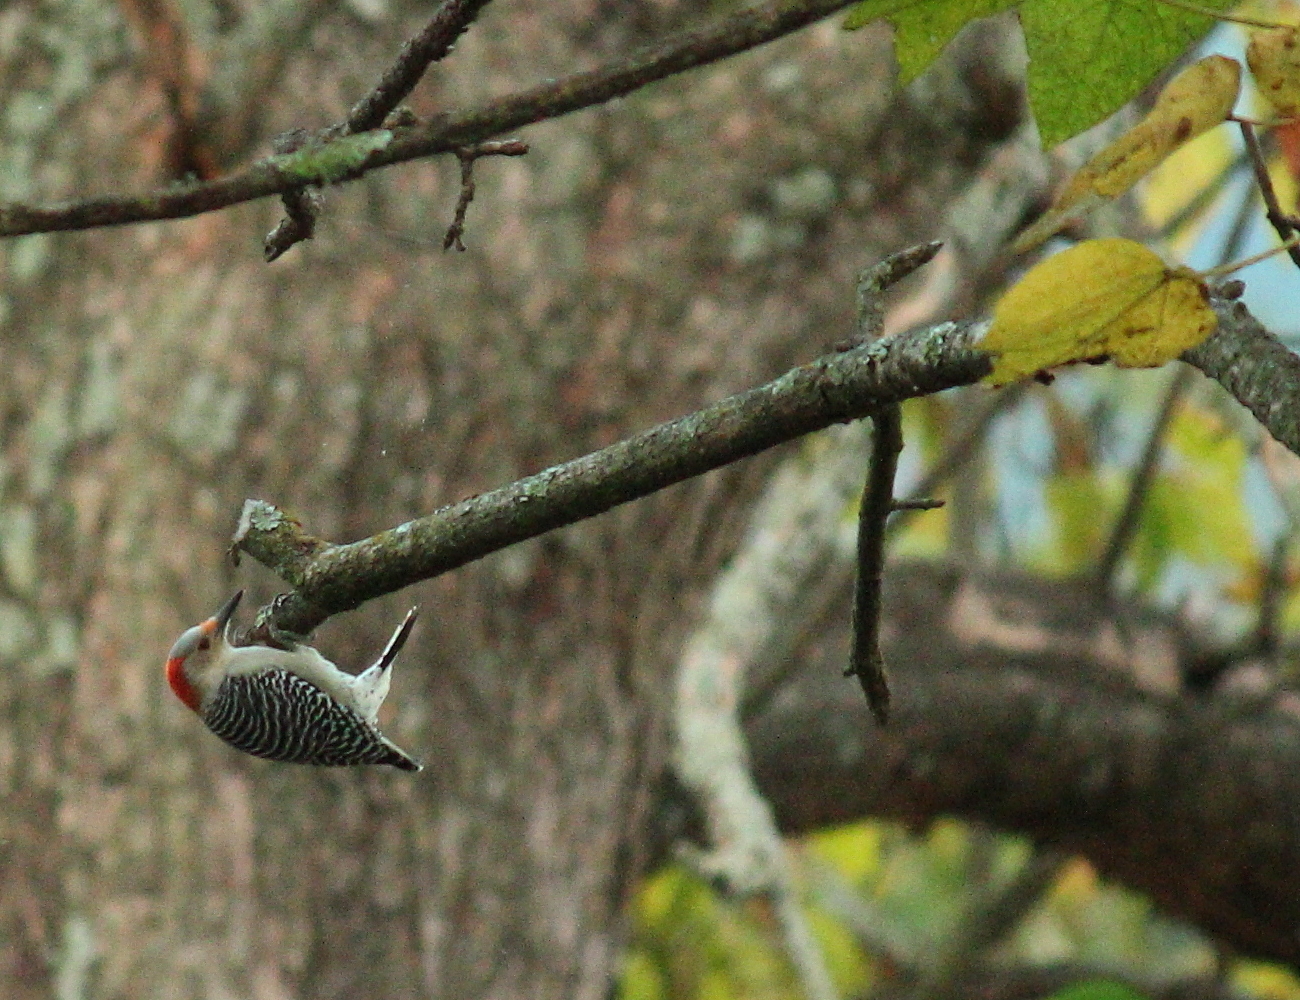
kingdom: Animalia
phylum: Chordata
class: Aves
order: Piciformes
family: Picidae
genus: Melanerpes
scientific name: Melanerpes carolinus
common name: Red-bellied woodpecker
